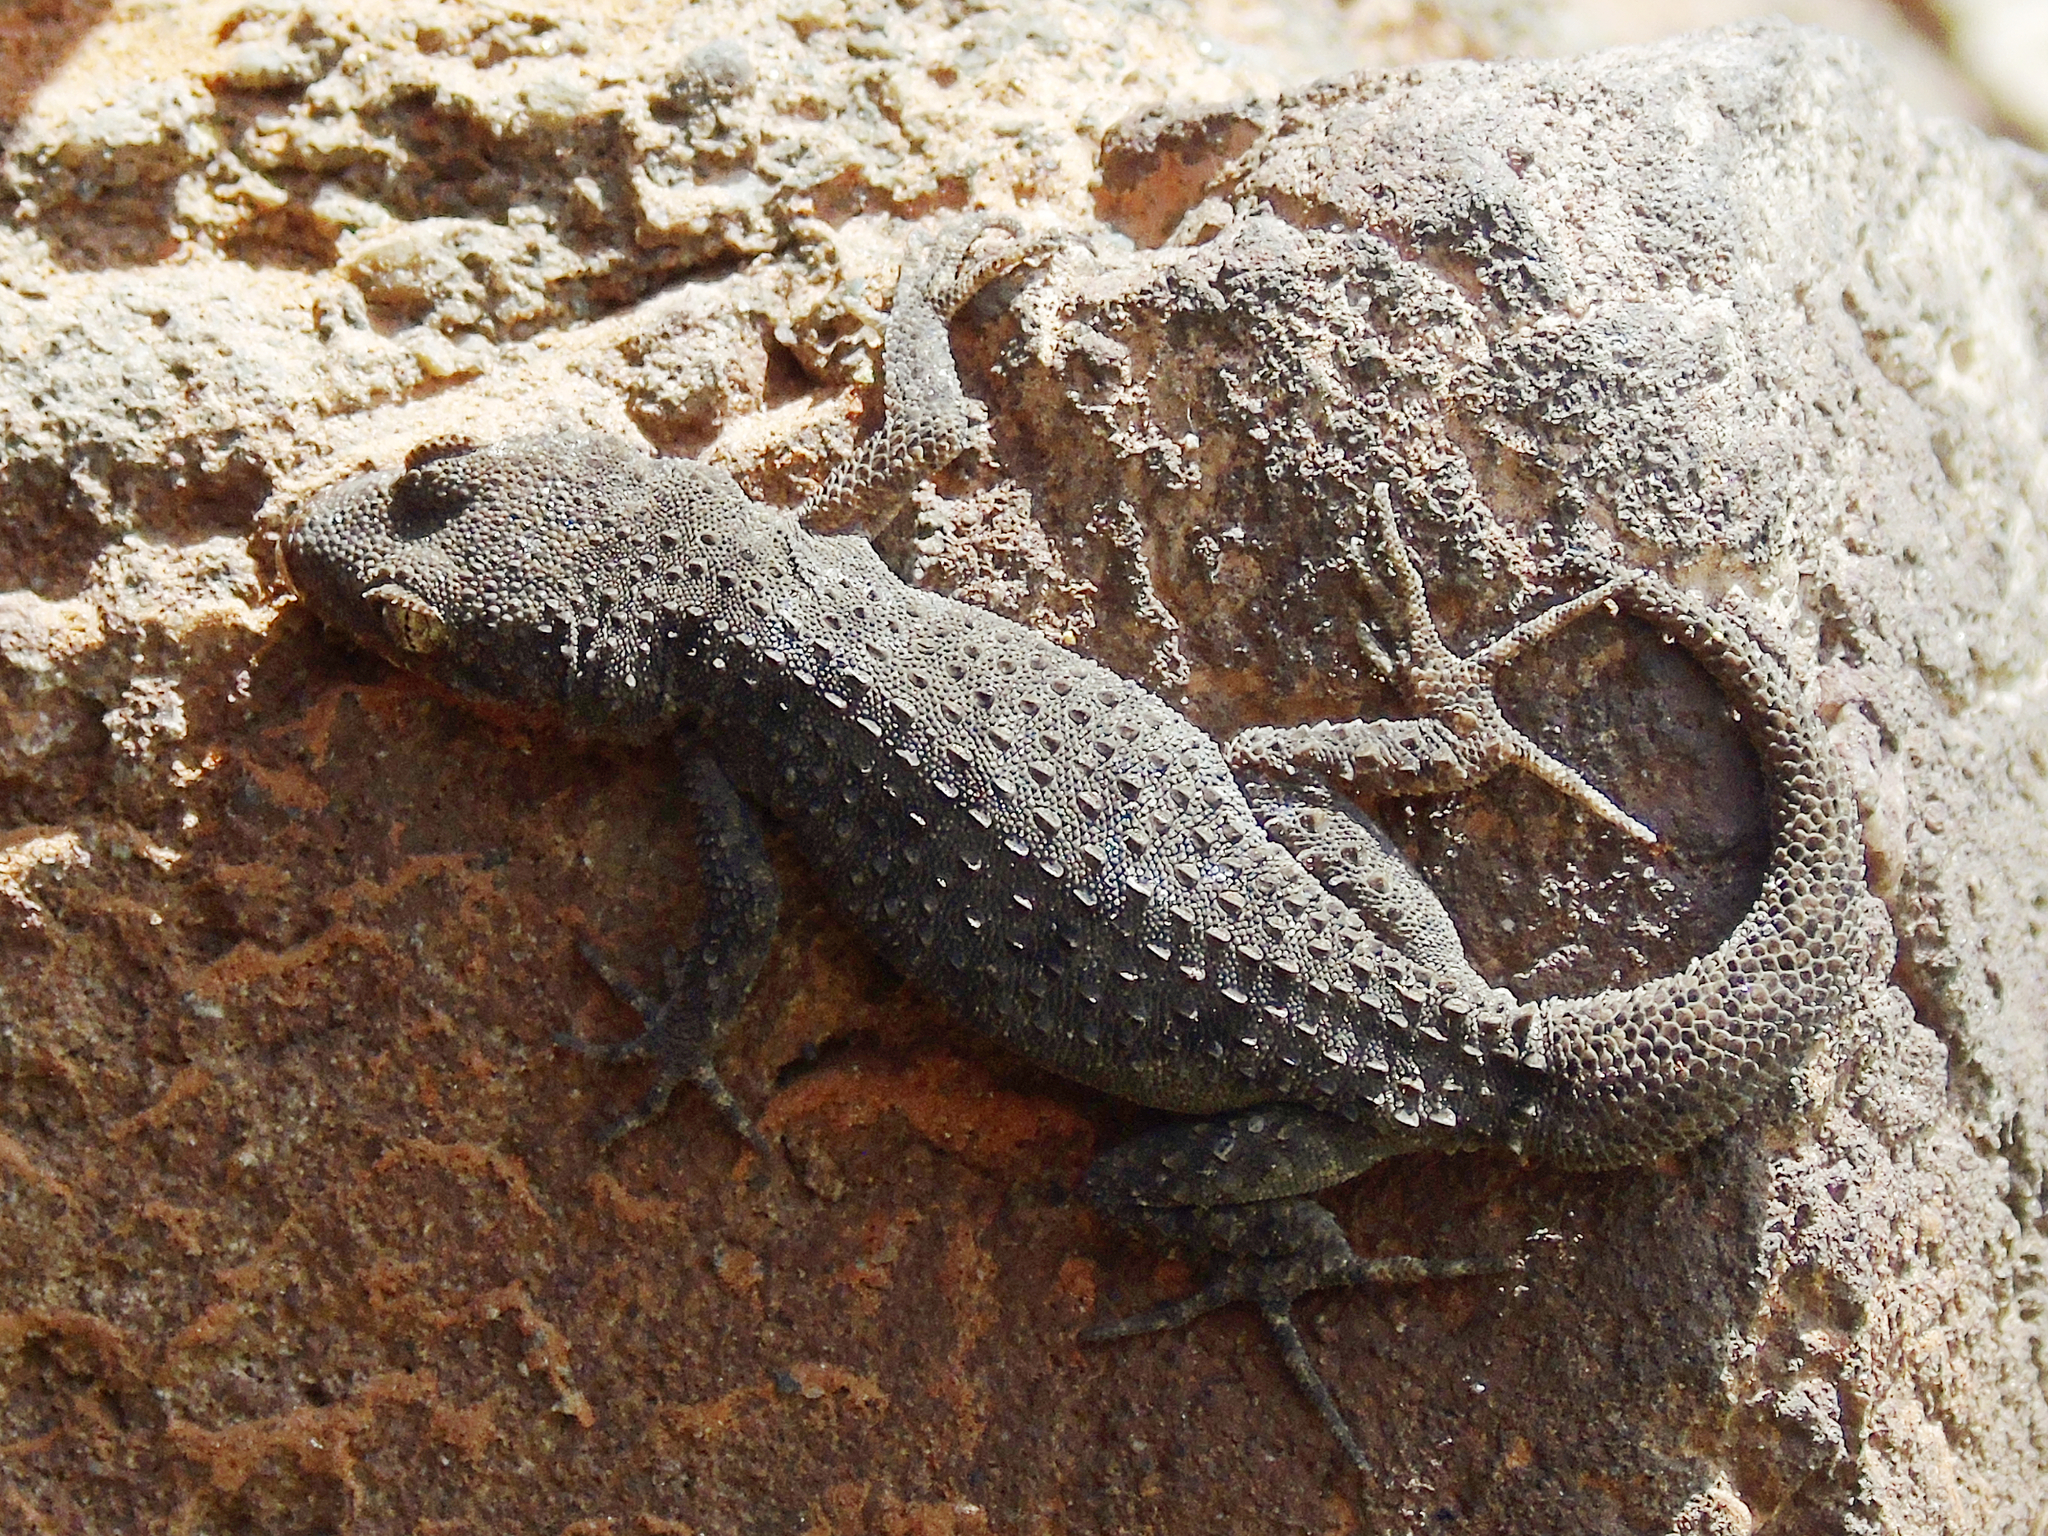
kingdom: Animalia
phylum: Chordata
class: Squamata
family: Gekkonidae
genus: Mediodactylus
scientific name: Mediodactylus kotschyi
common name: Kotschy's gecko
